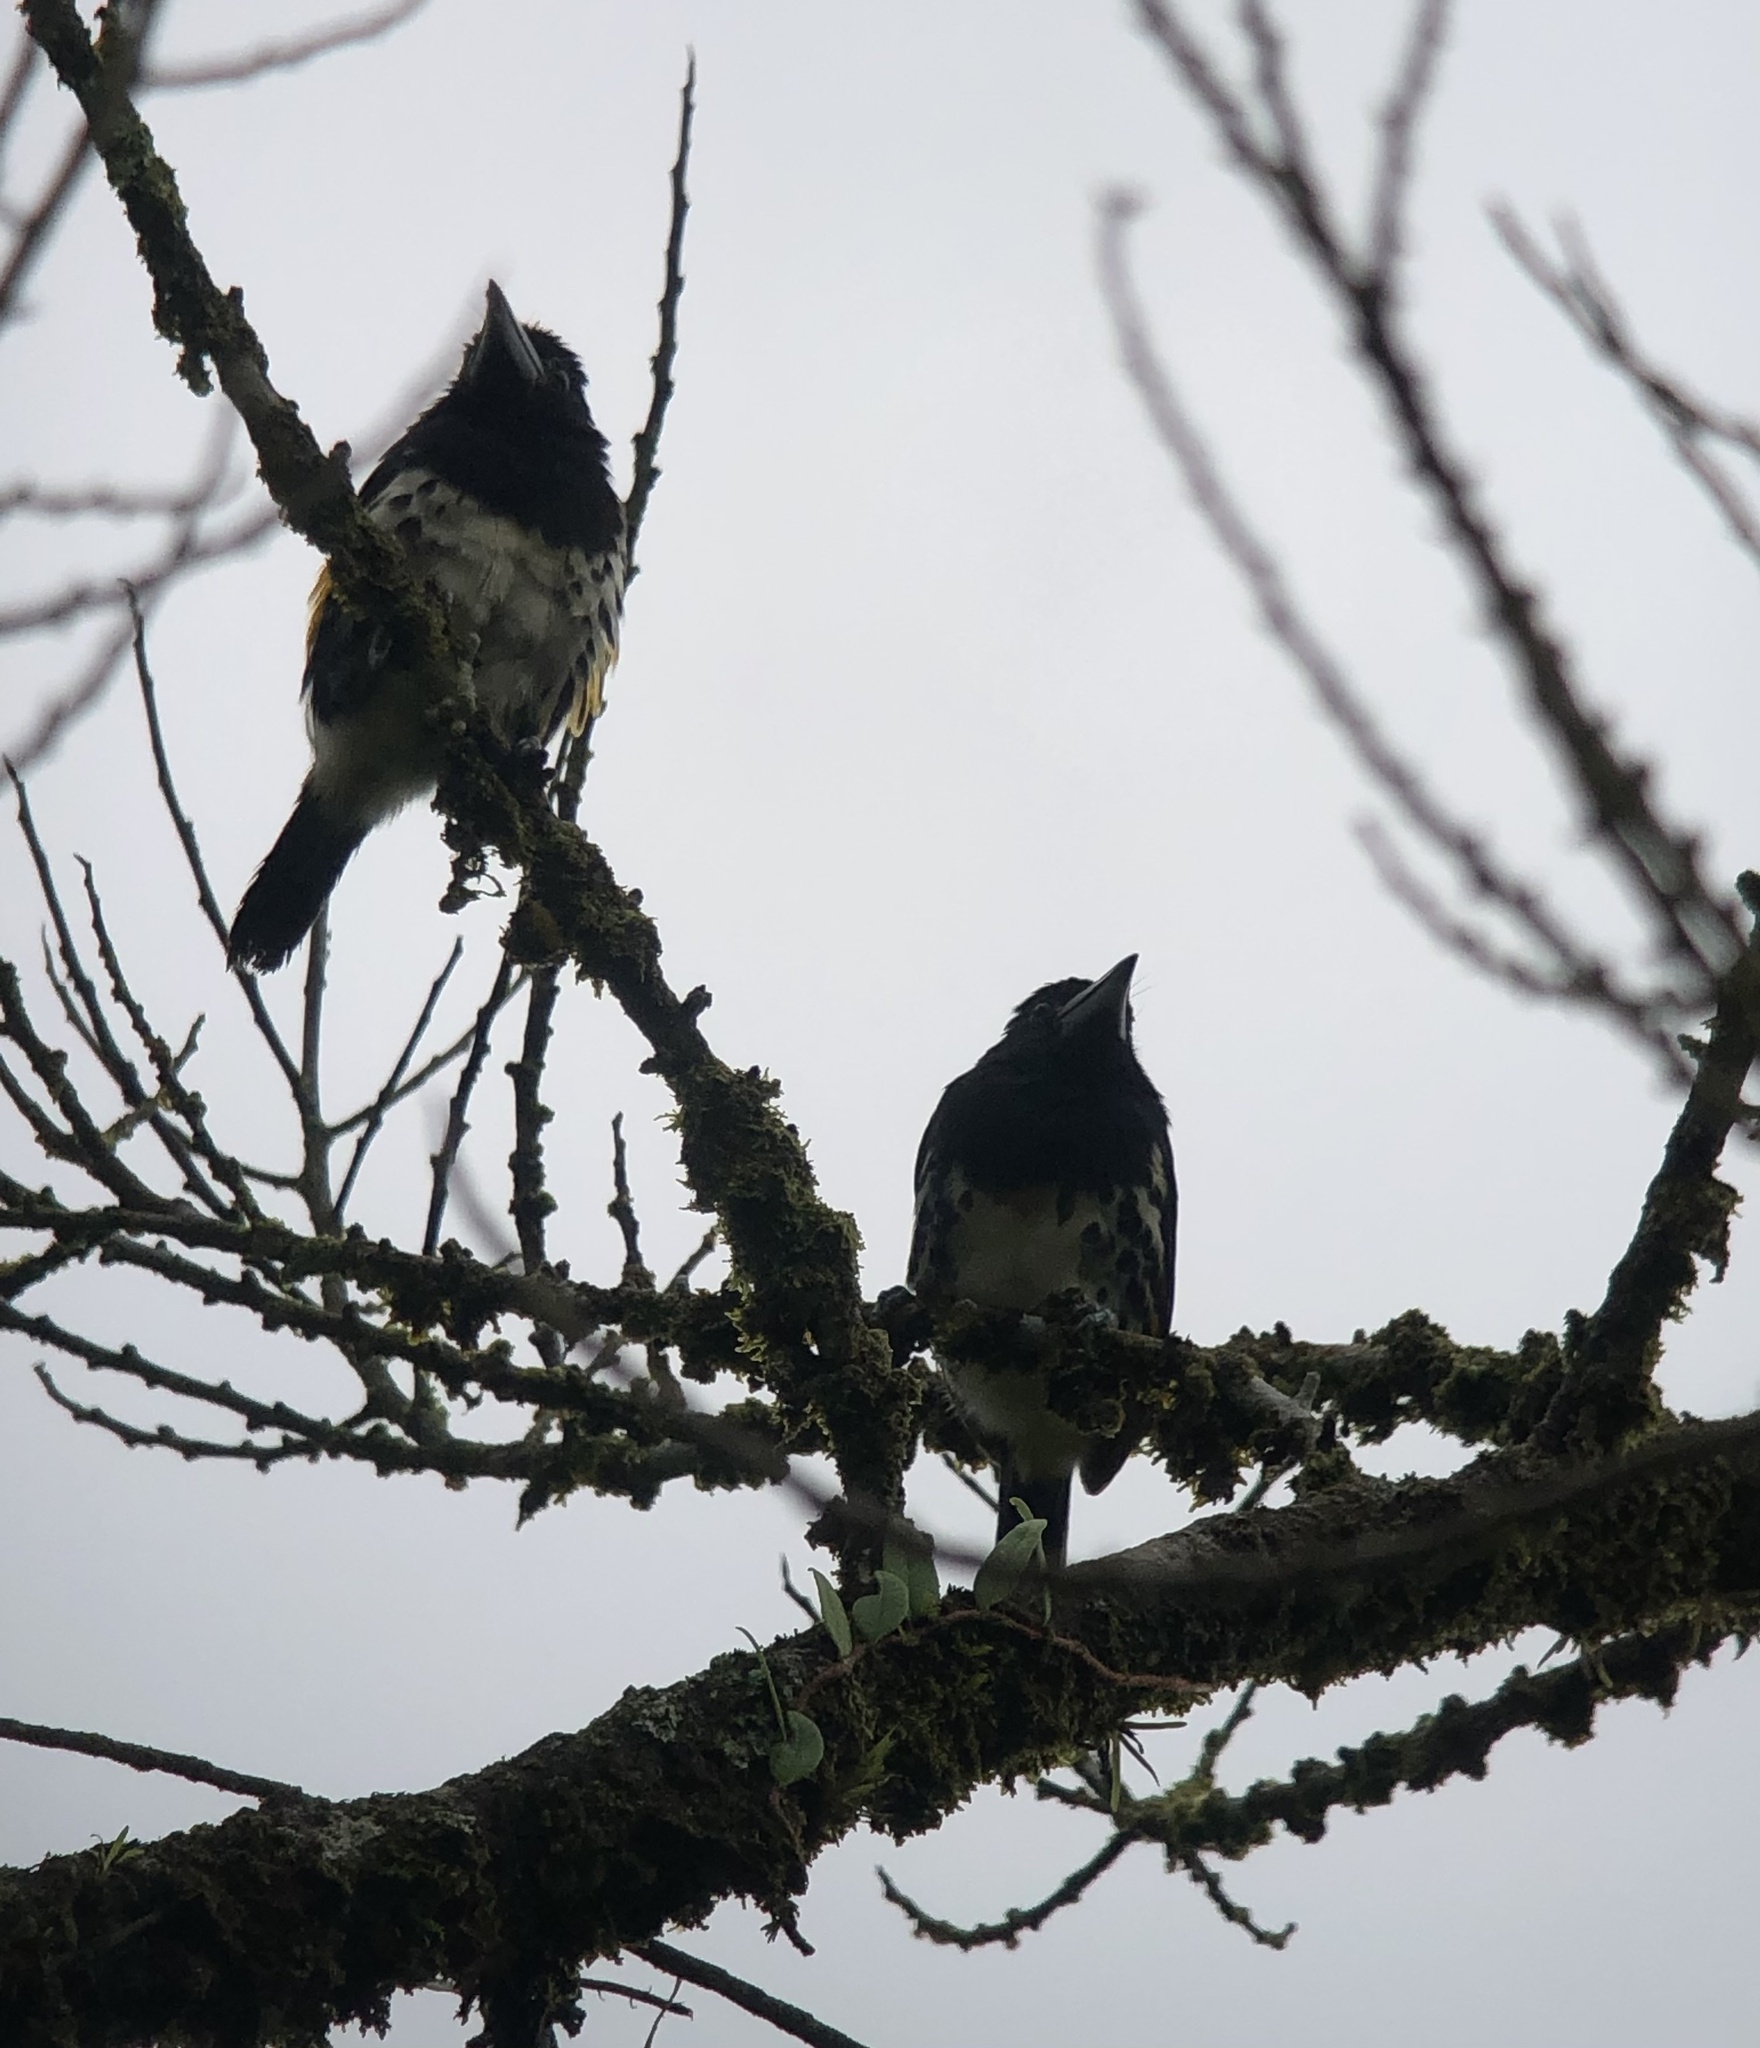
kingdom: Animalia
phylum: Chordata
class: Aves
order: Piciformes
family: Capitonidae
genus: Capito
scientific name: Capito maculicoronatus
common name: Spot-crowned barbet
